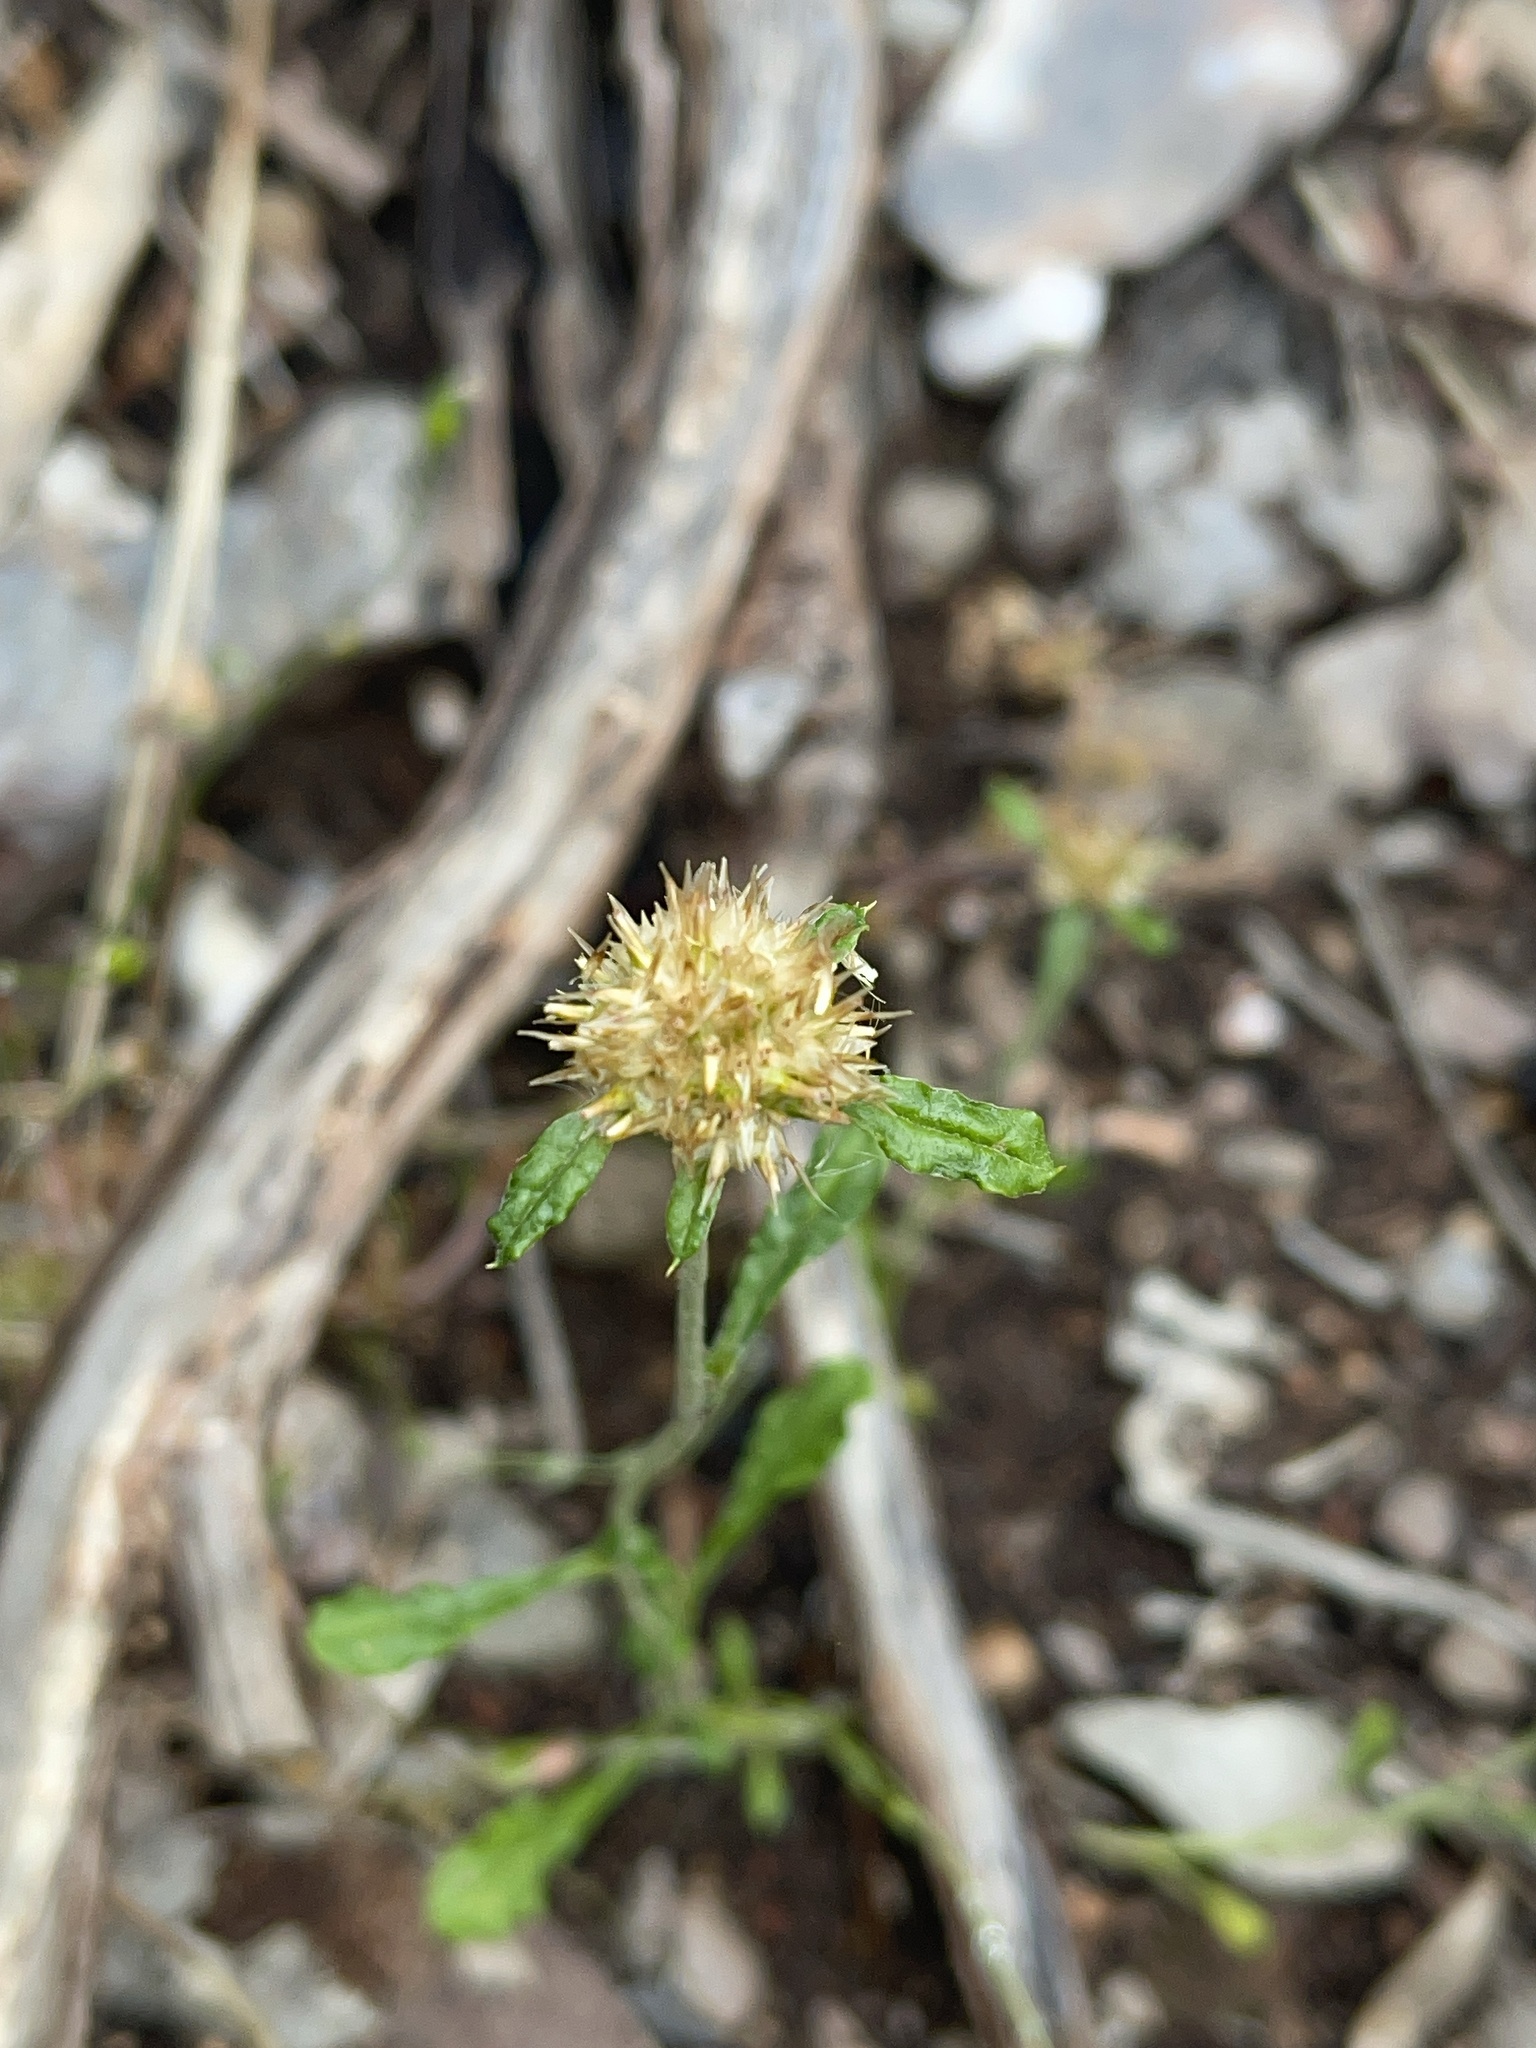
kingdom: Plantae
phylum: Tracheophyta
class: Magnoliopsida
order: Asterales
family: Asteraceae
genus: Euchiton
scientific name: Euchiton sphaericus
